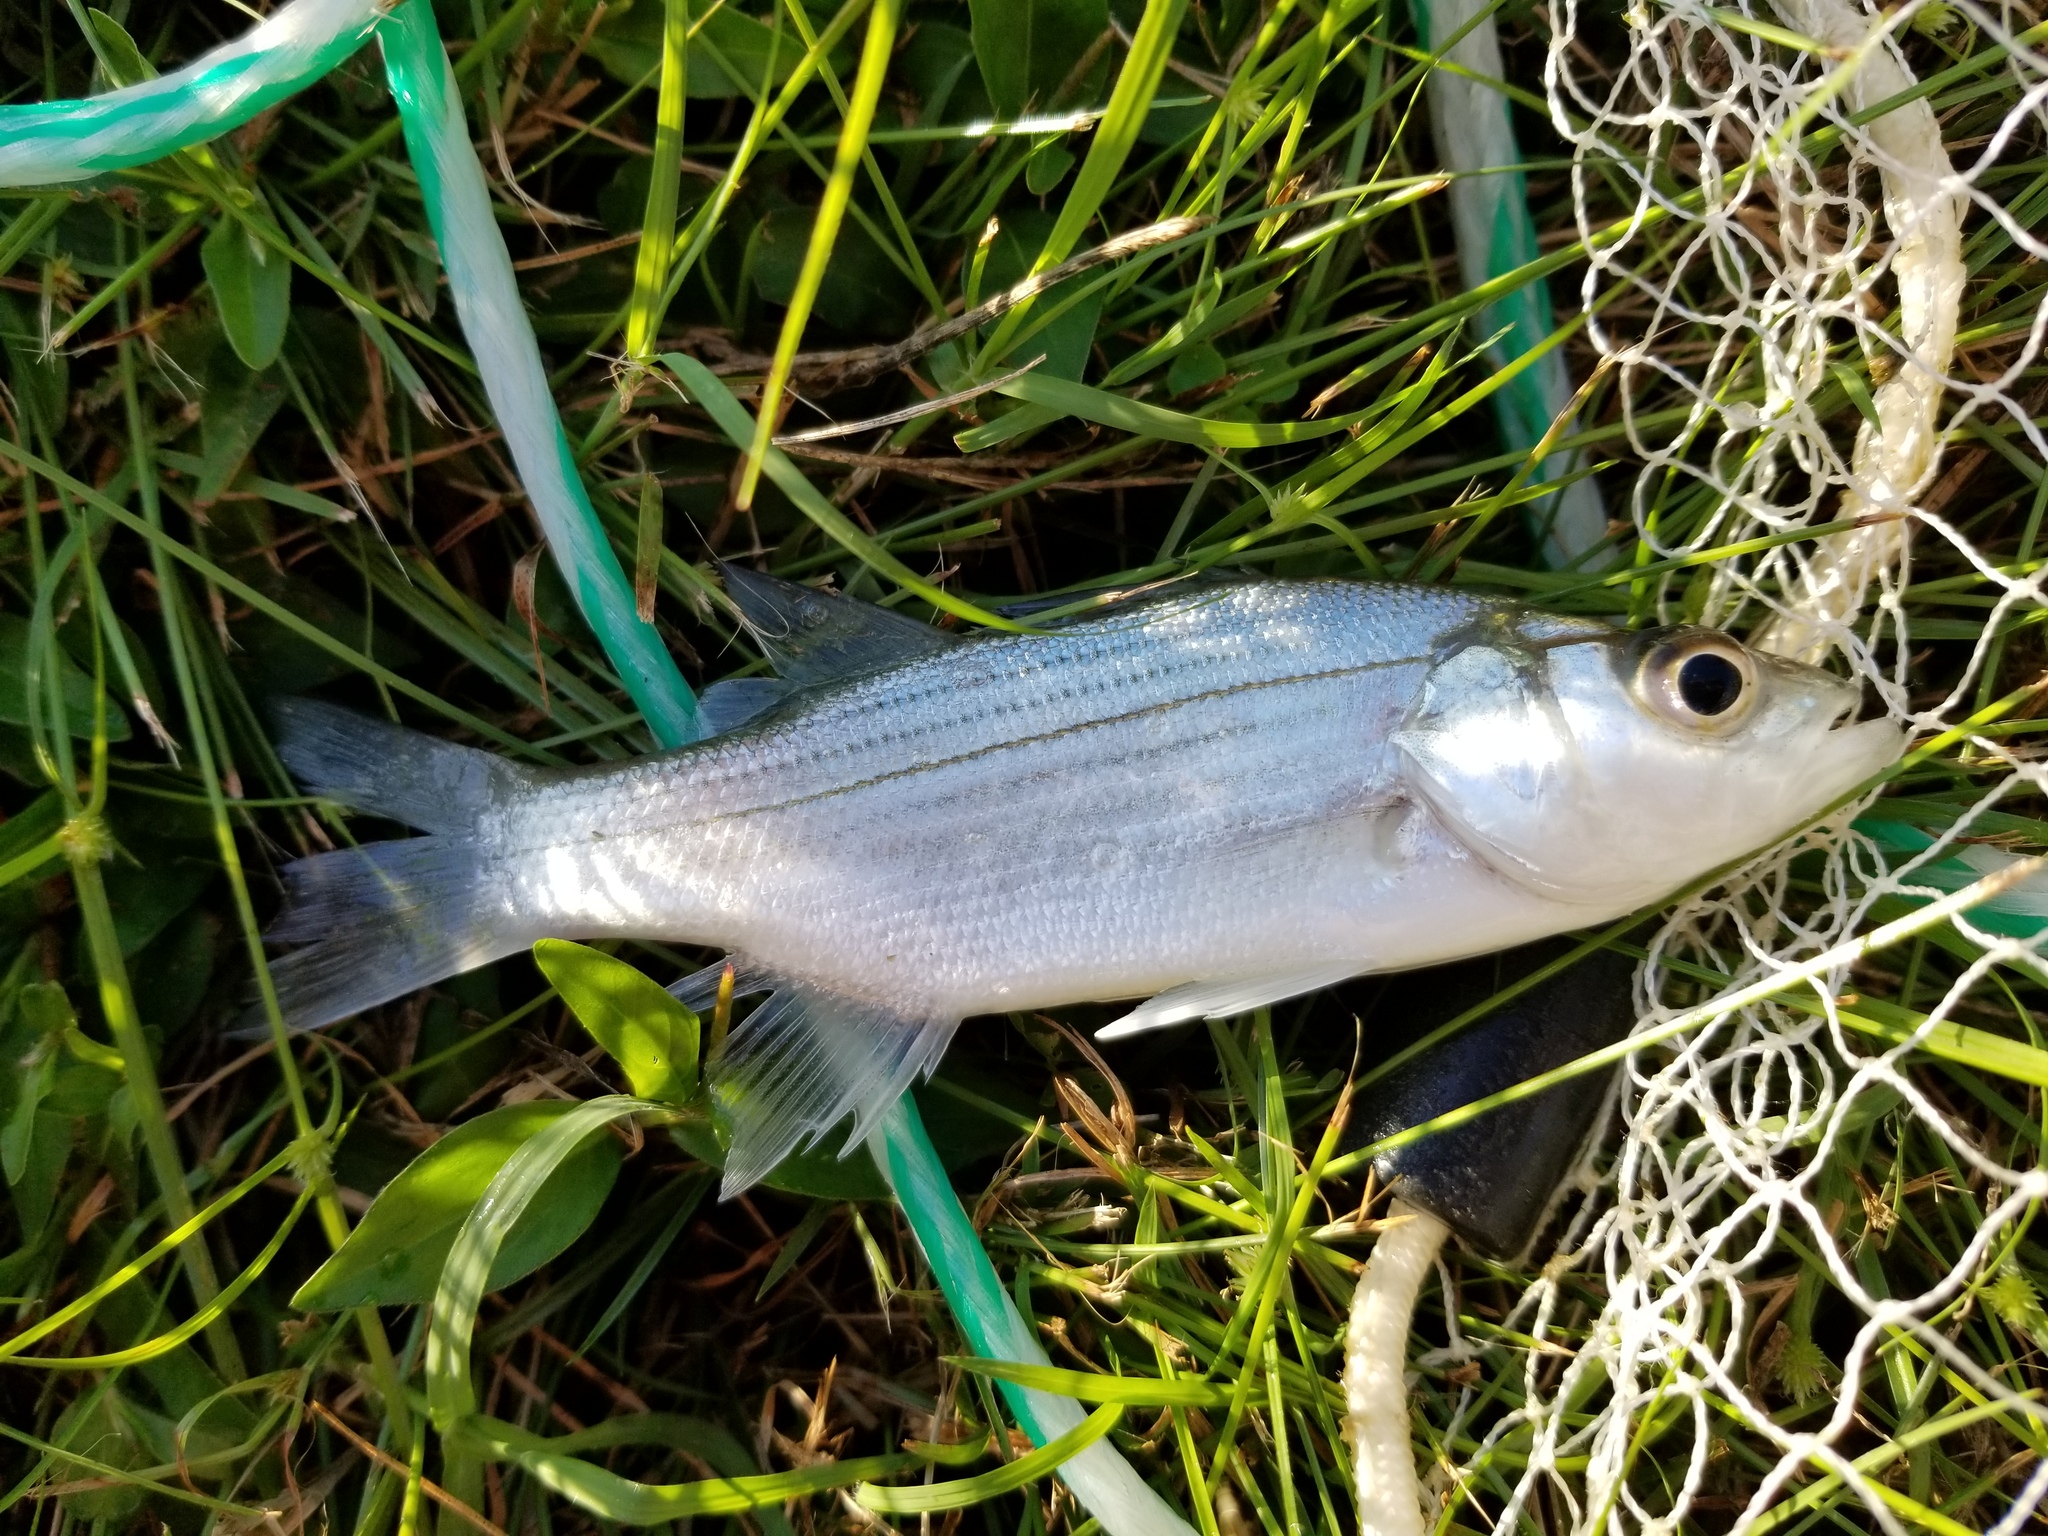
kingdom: Animalia
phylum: Chordata
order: Perciformes
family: Moronidae
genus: Morone
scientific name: Morone saxatilis
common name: Striped bass
